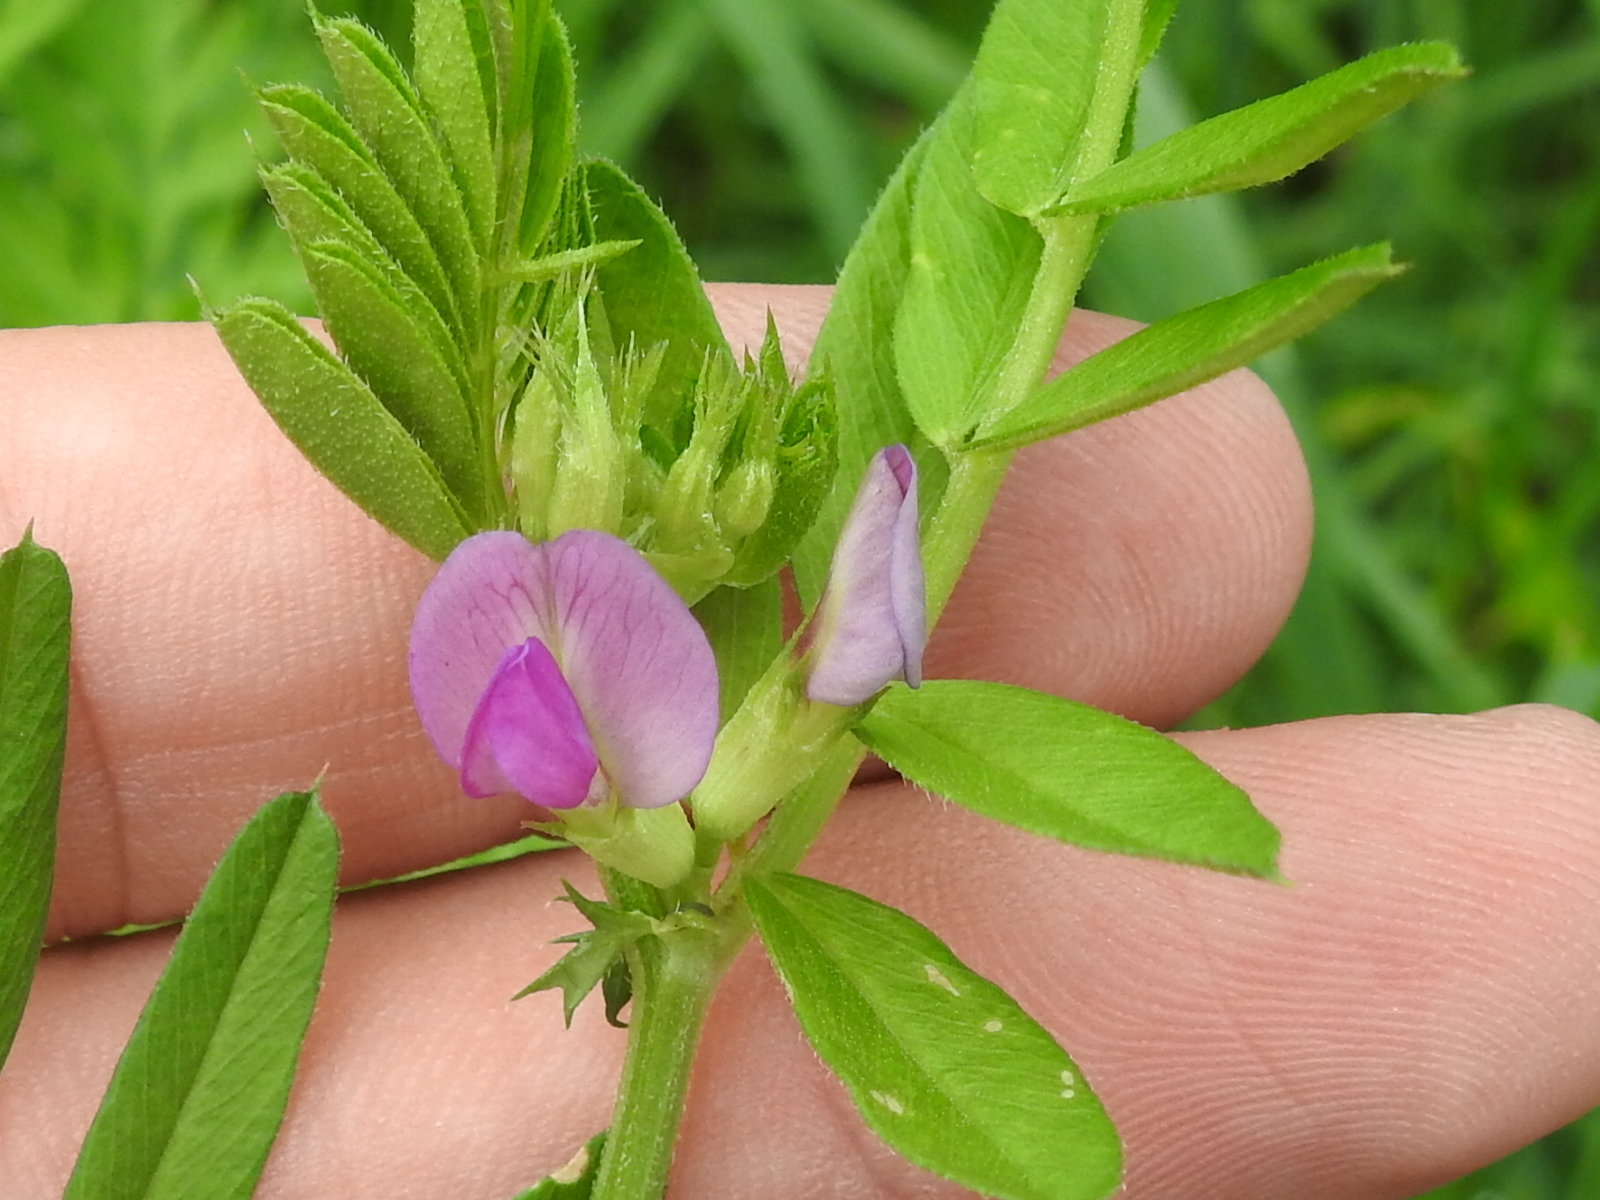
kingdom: Plantae
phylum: Tracheophyta
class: Magnoliopsida
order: Fabales
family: Fabaceae
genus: Vicia
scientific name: Vicia sativa
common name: Garden vetch
